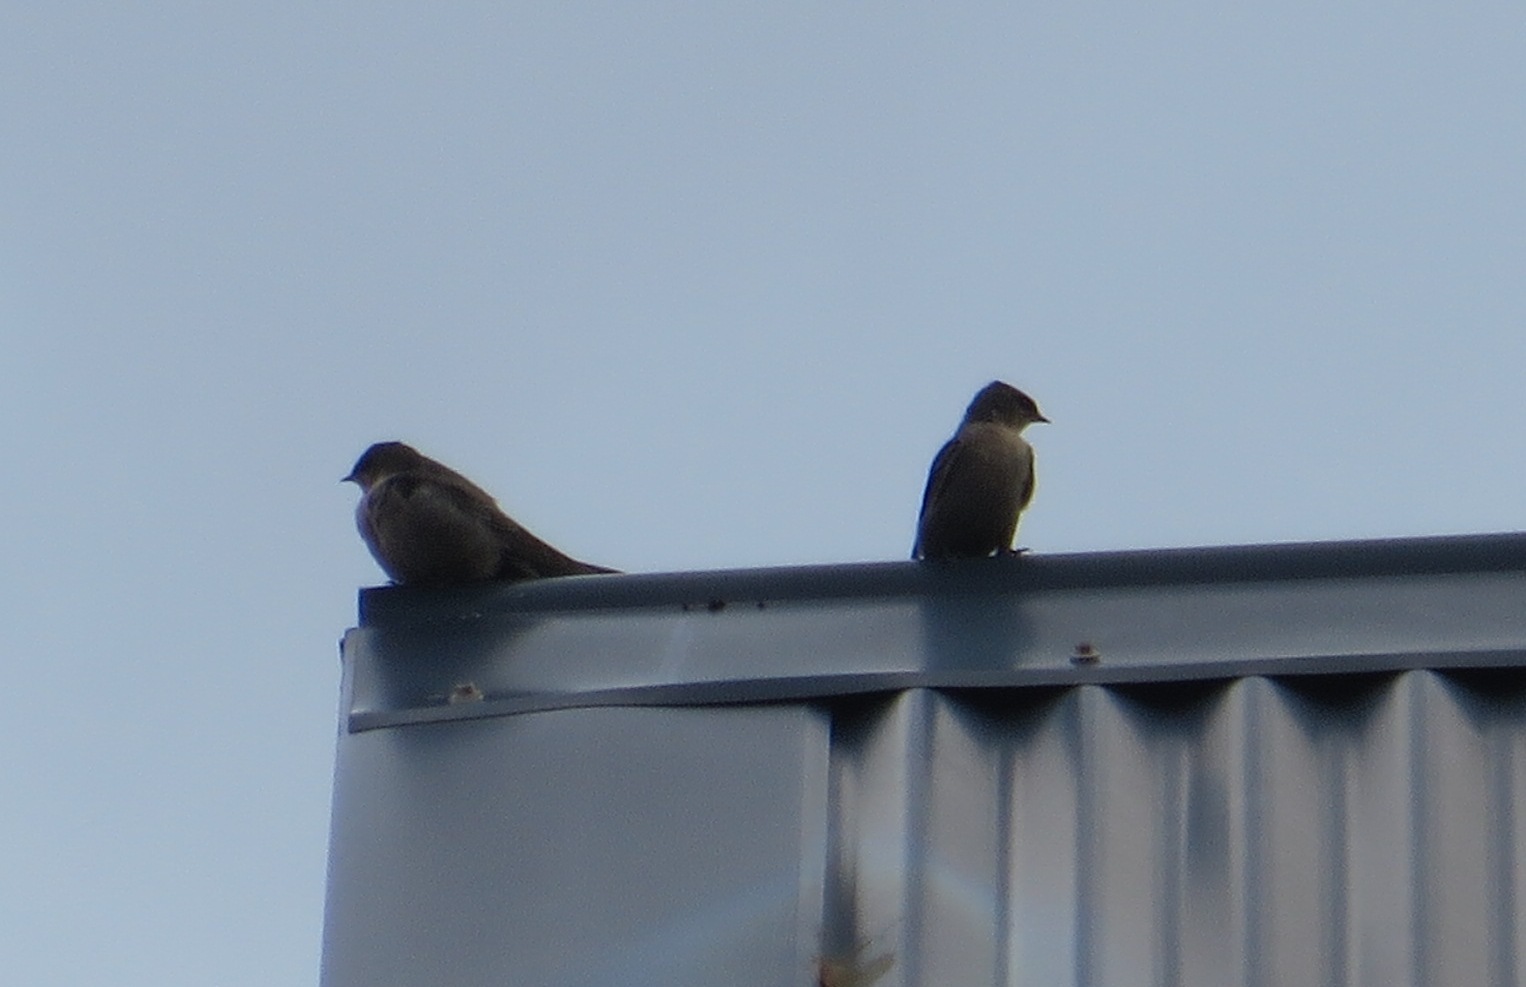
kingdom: Animalia
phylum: Chordata
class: Aves
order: Passeriformes
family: Hirundinidae
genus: Ptyonoprogne
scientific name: Ptyonoprogne fuligula
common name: Rock martin
